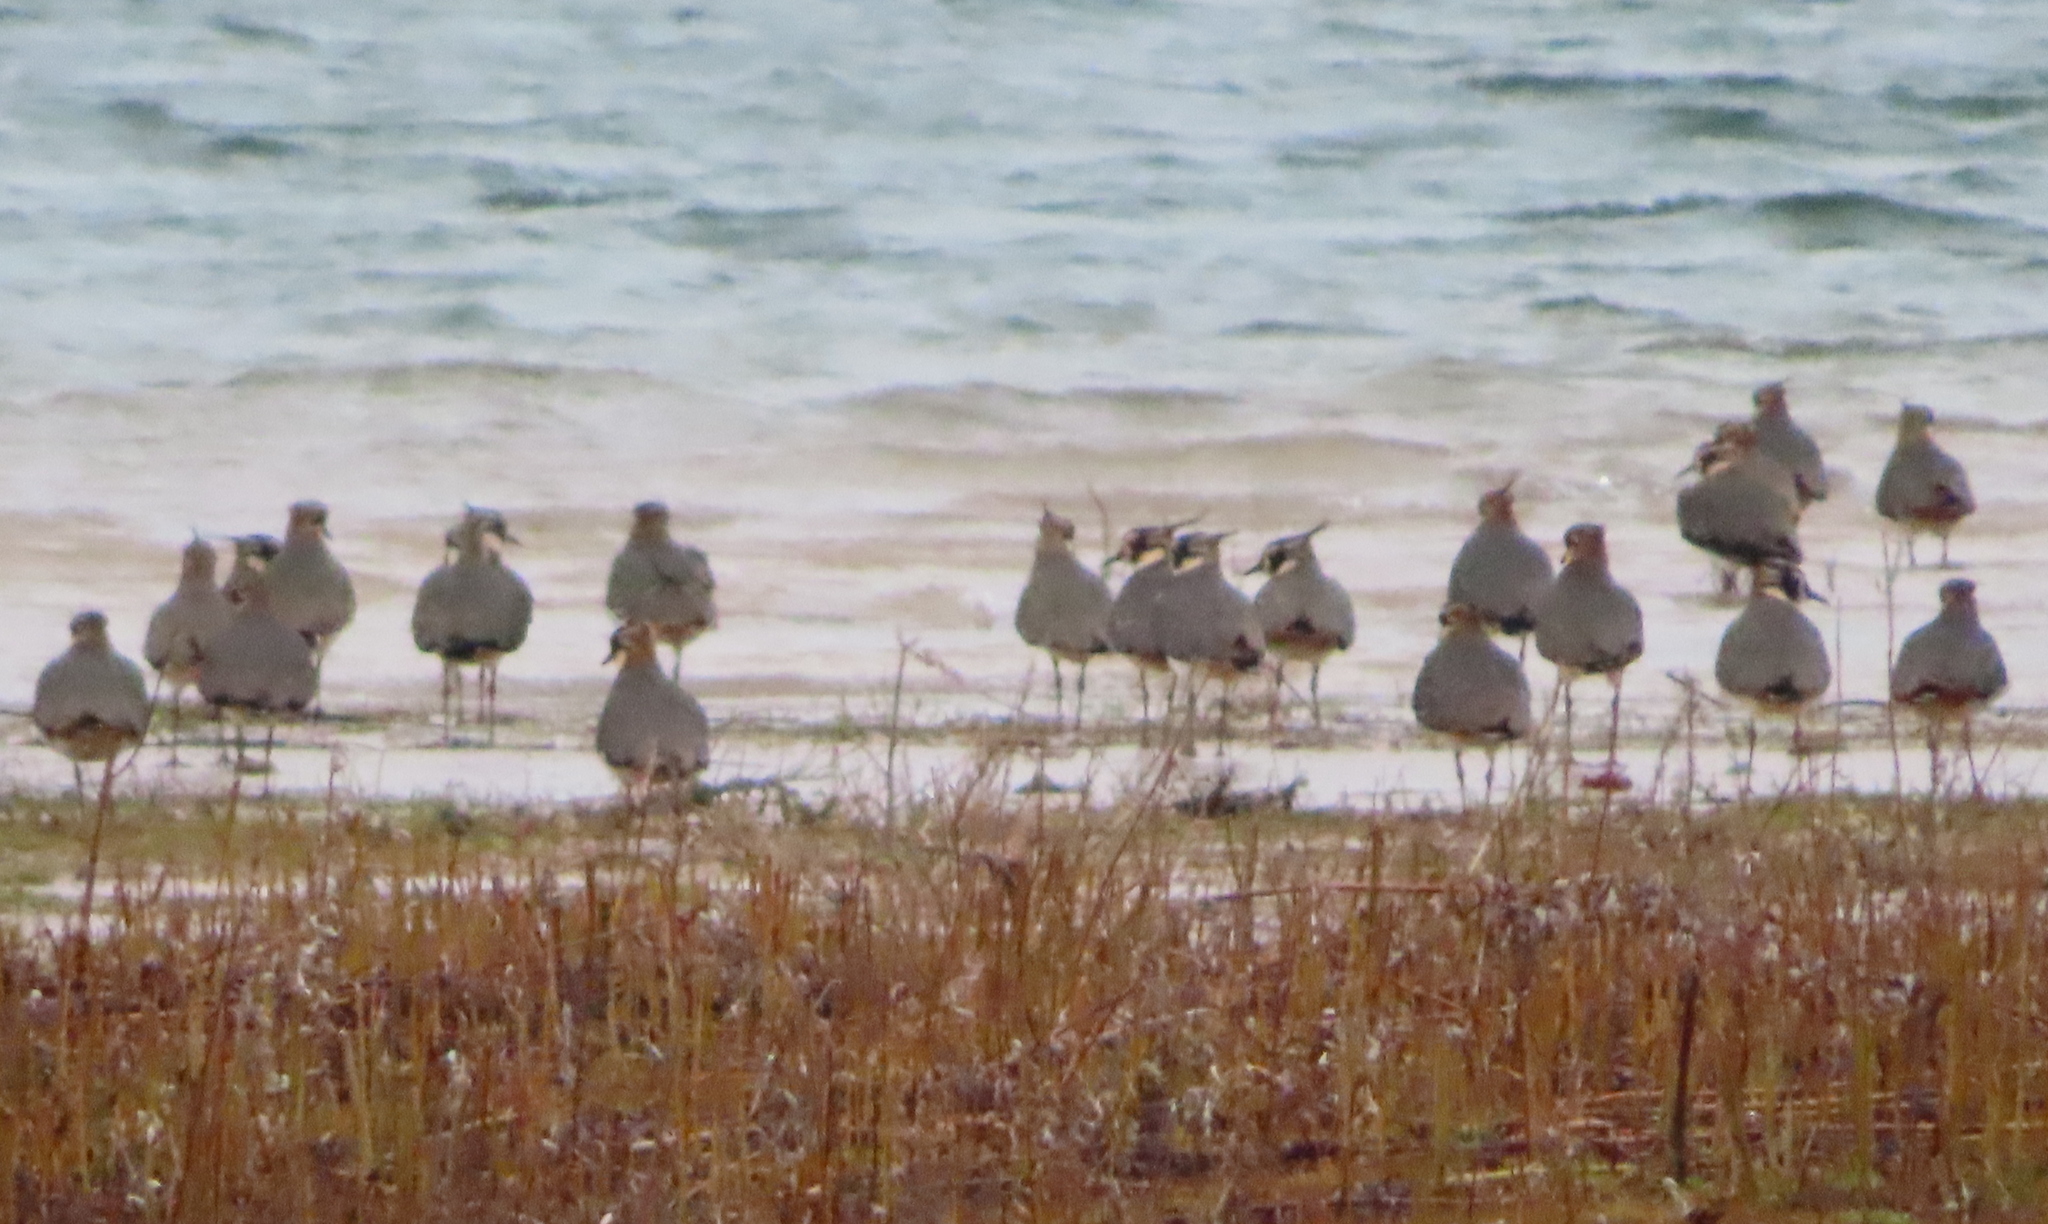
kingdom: Animalia
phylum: Chordata
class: Aves
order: Charadriiformes
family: Charadriidae
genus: Vanellus
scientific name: Vanellus vanellus
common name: Northern lapwing
